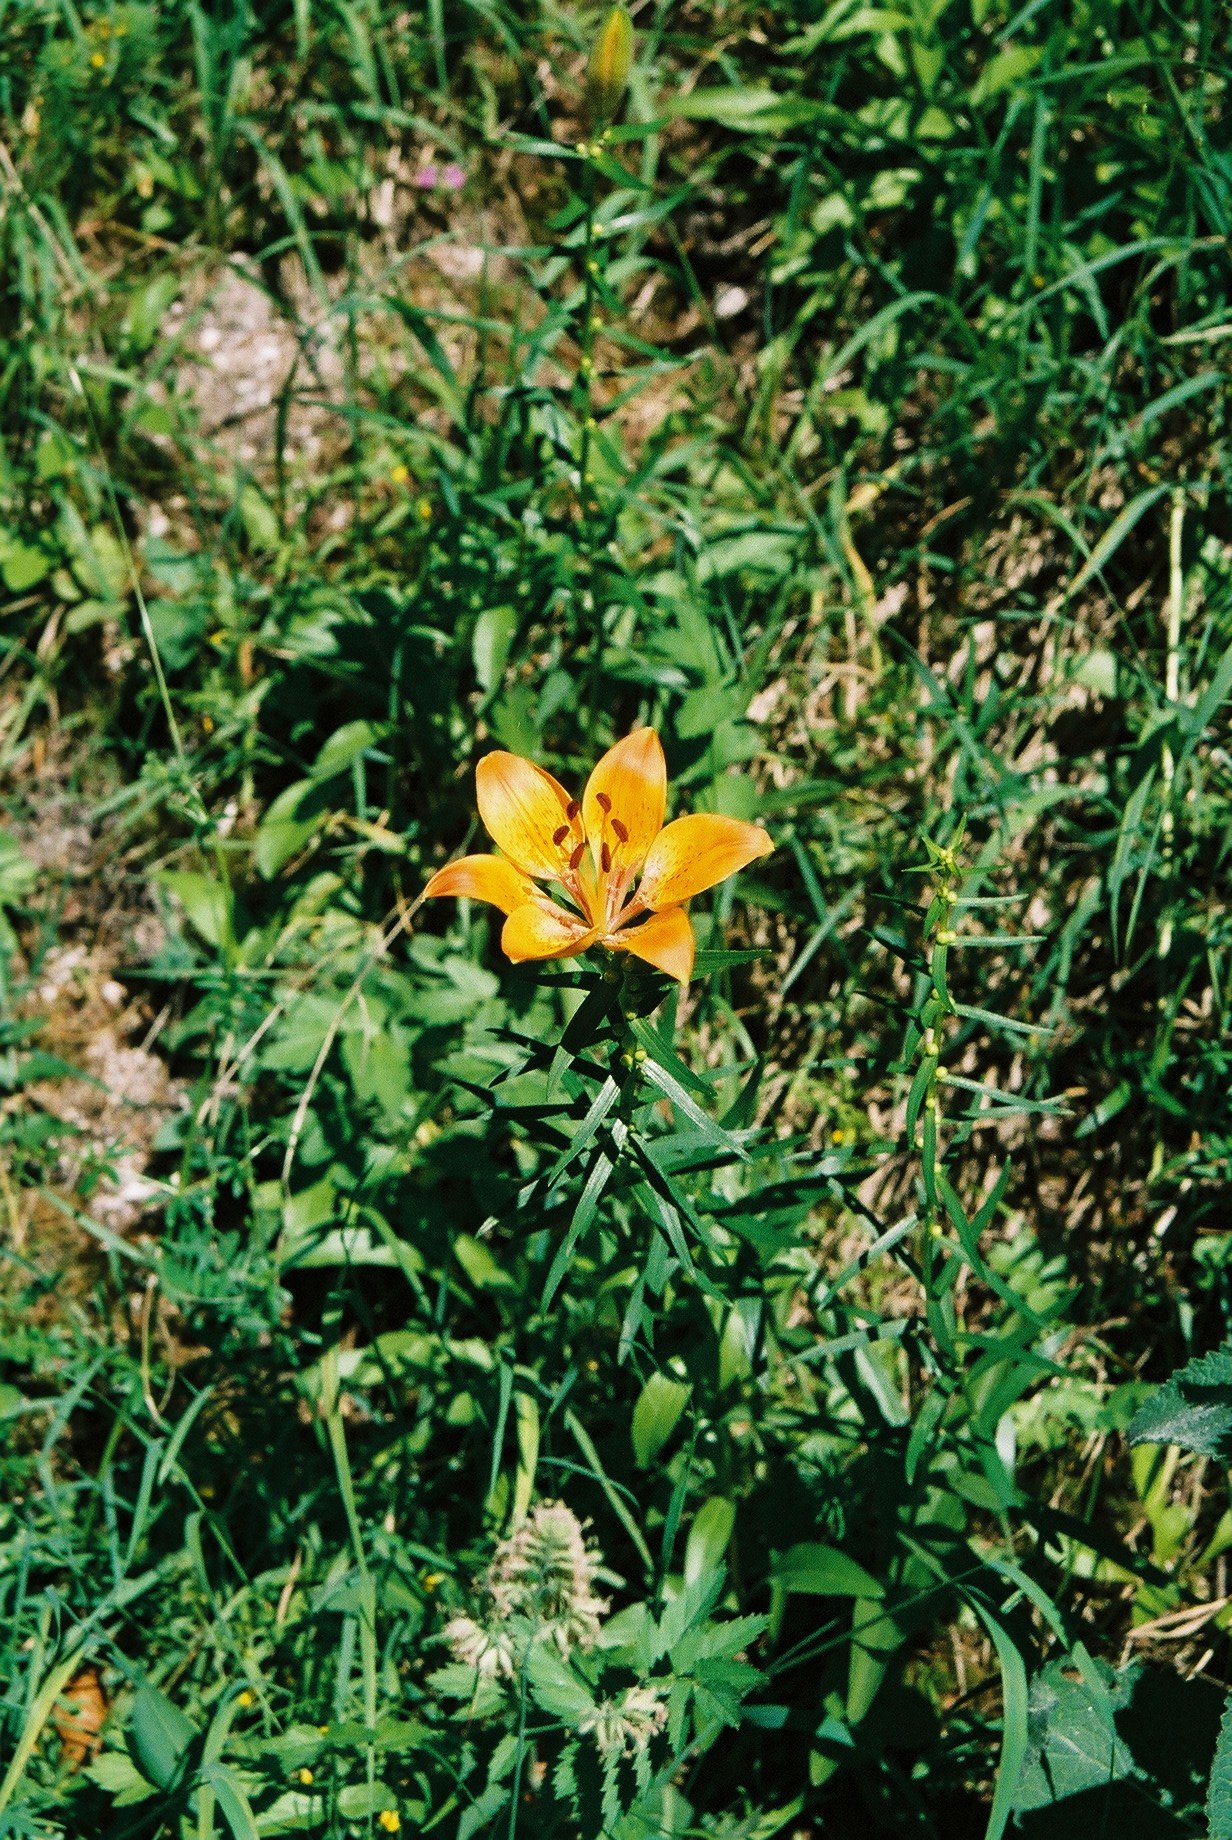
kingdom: Plantae
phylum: Tracheophyta
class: Liliopsida
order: Liliales
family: Liliaceae
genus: Lilium
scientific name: Lilium bulbiferum
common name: Orange lily
